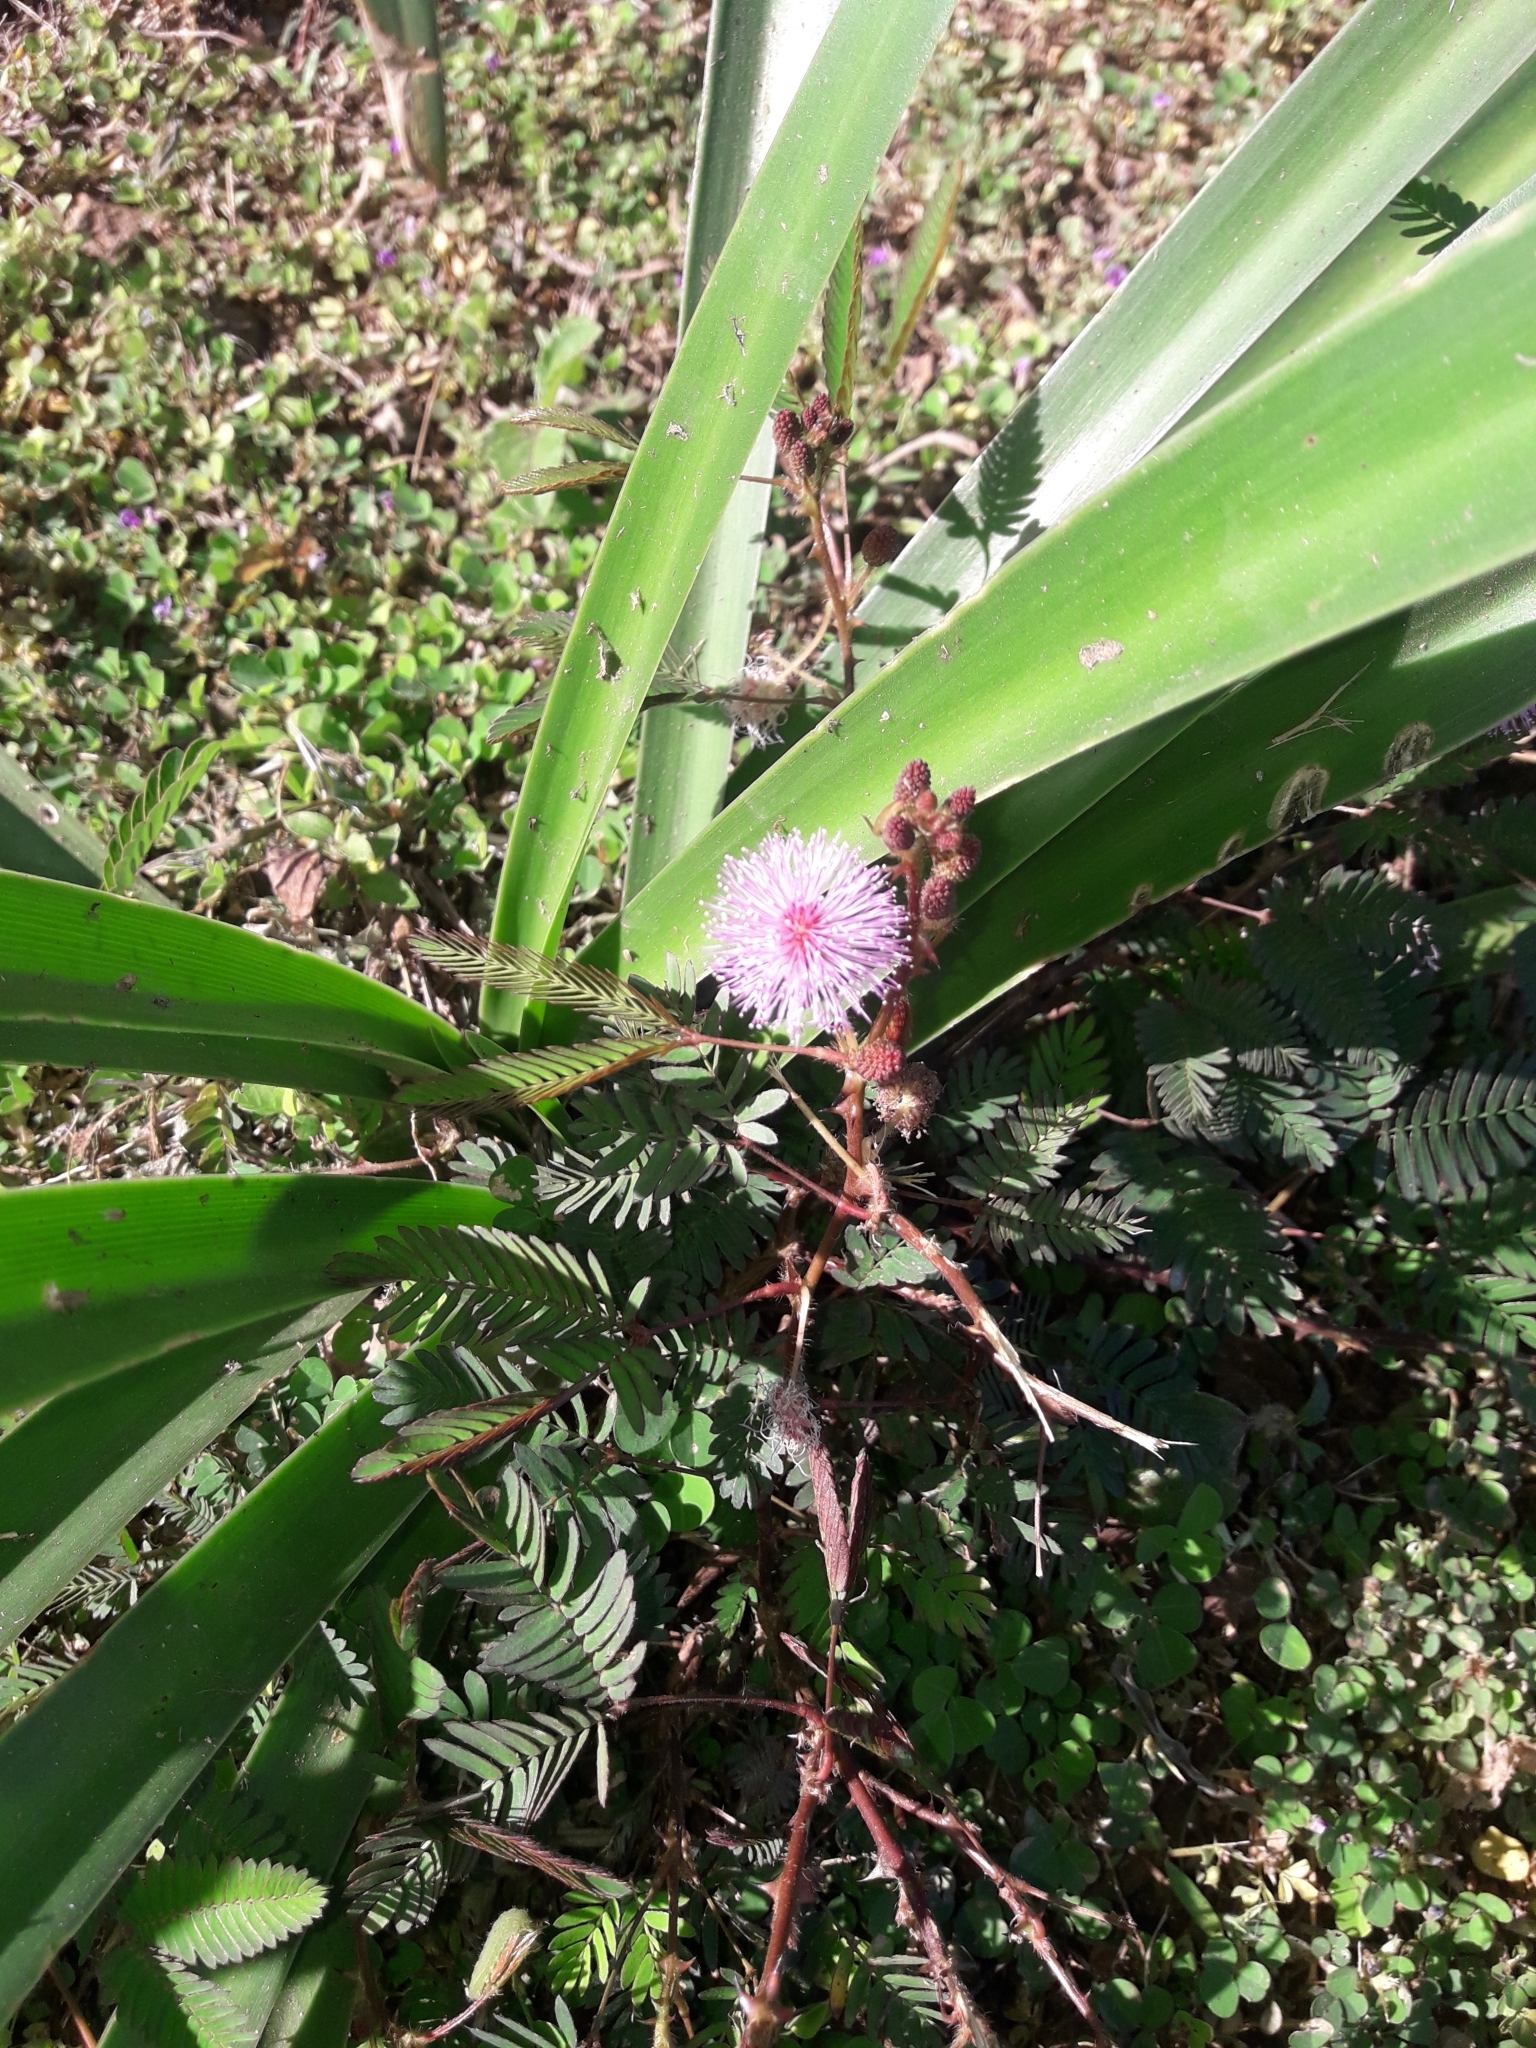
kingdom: Plantae
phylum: Tracheophyta
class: Magnoliopsida
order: Fabales
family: Fabaceae
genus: Mimosa
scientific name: Mimosa pudica
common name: Sensitive plant
